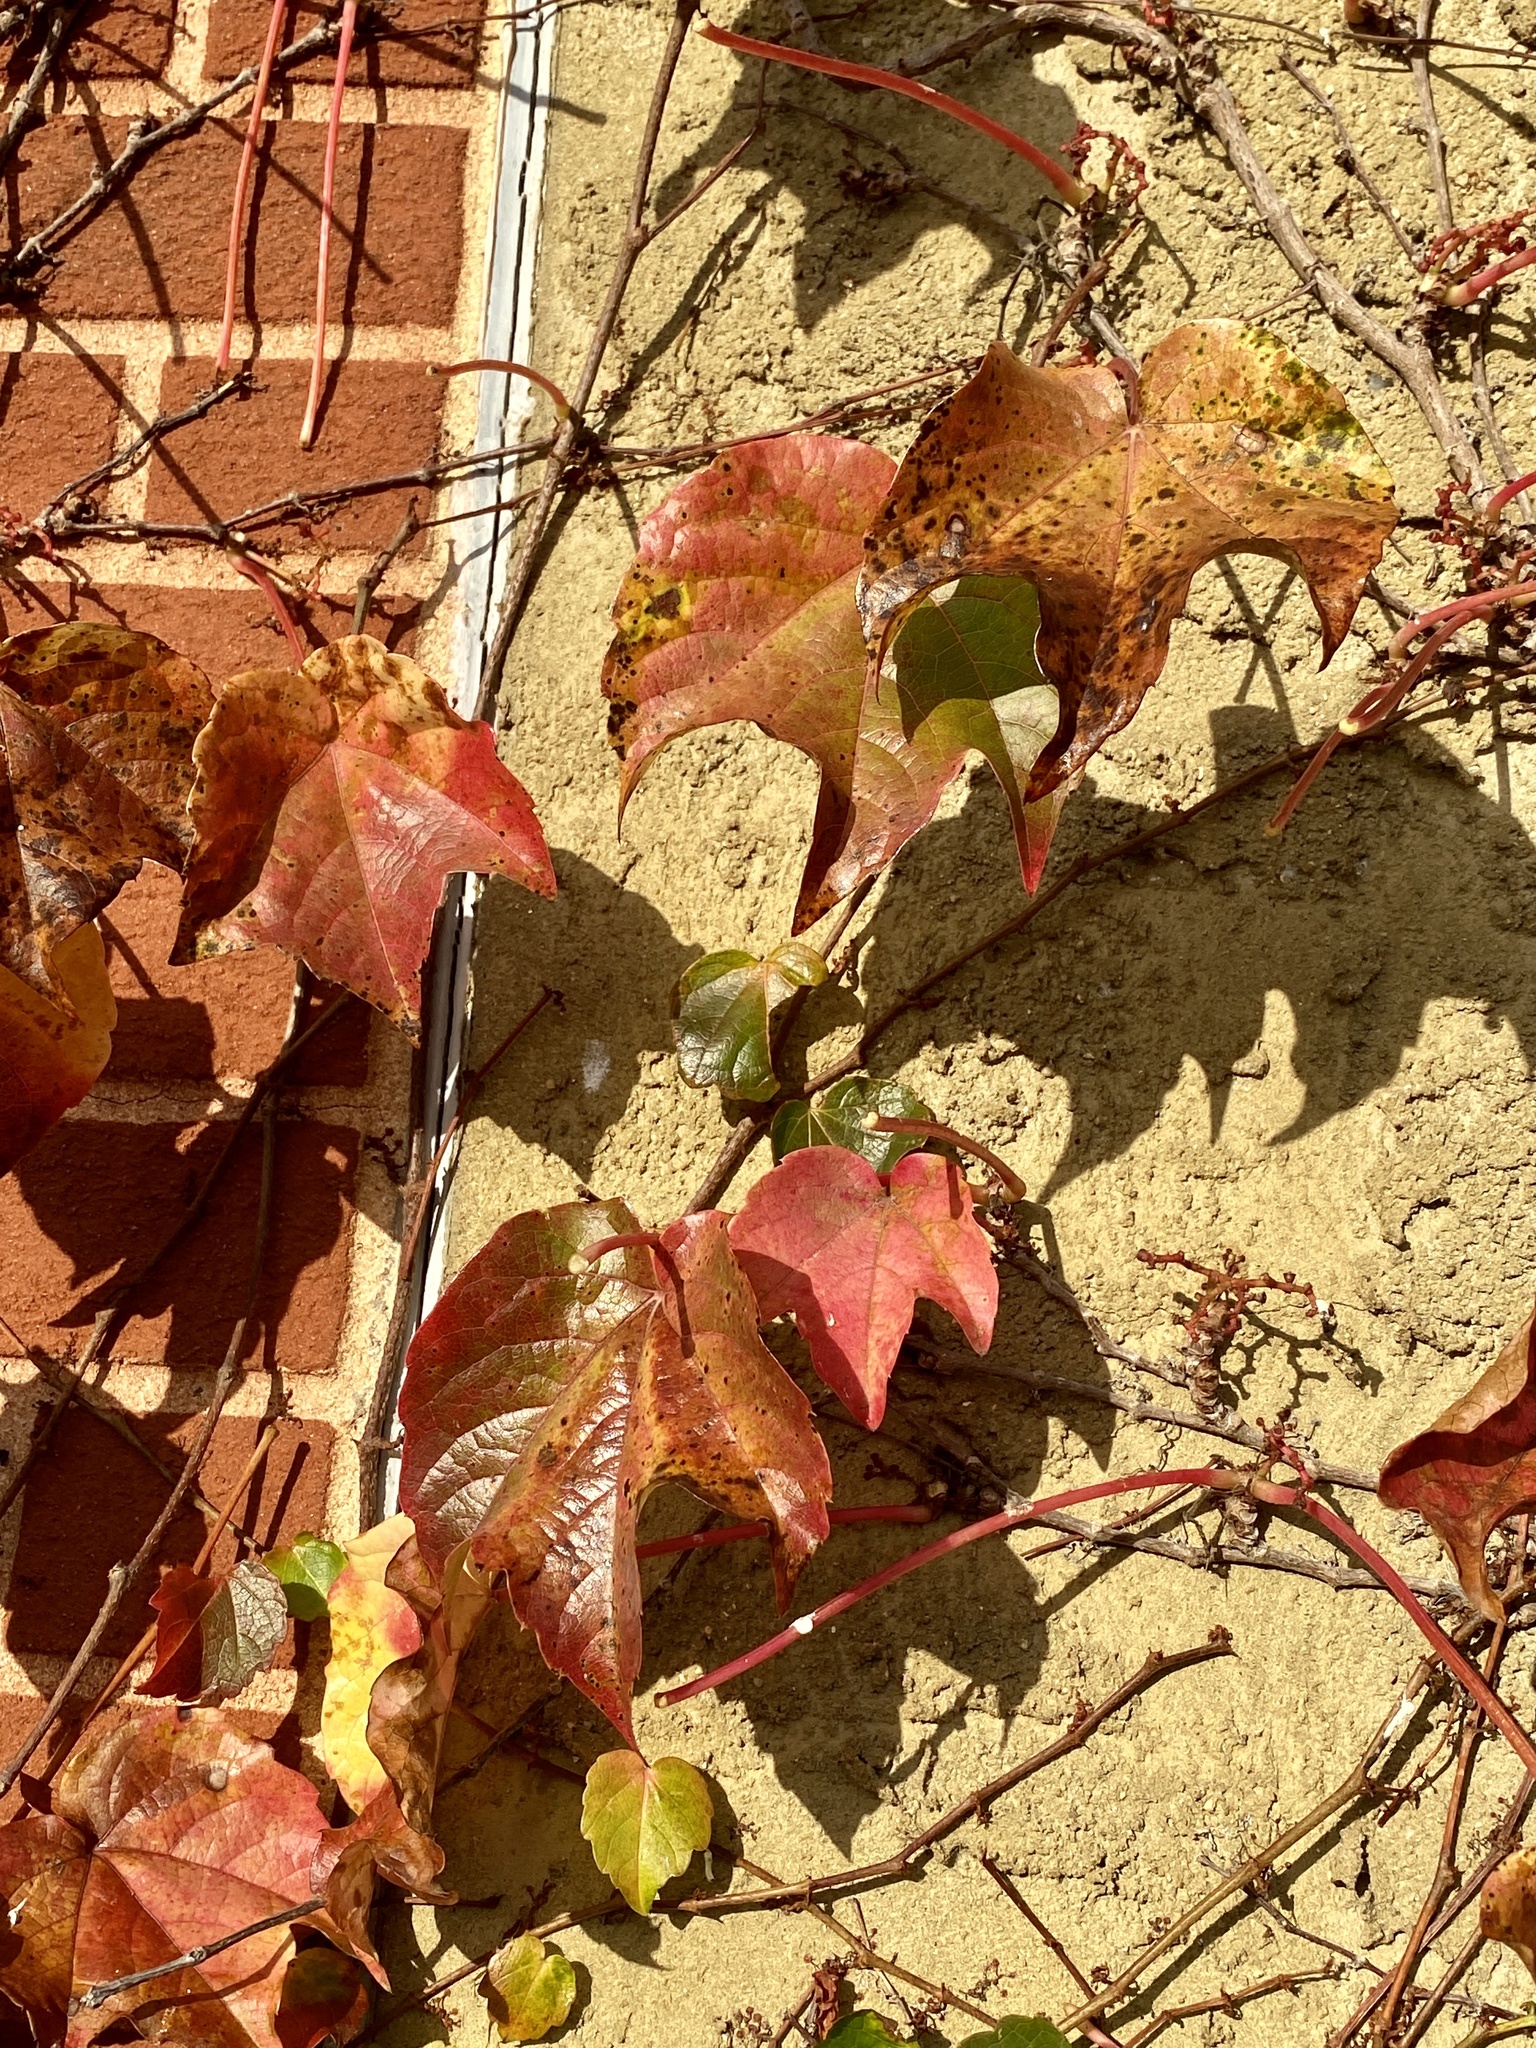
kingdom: Plantae
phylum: Tracheophyta
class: Magnoliopsida
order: Vitales
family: Vitaceae
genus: Parthenocissus
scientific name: Parthenocissus tricuspidata
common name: Boston ivy
